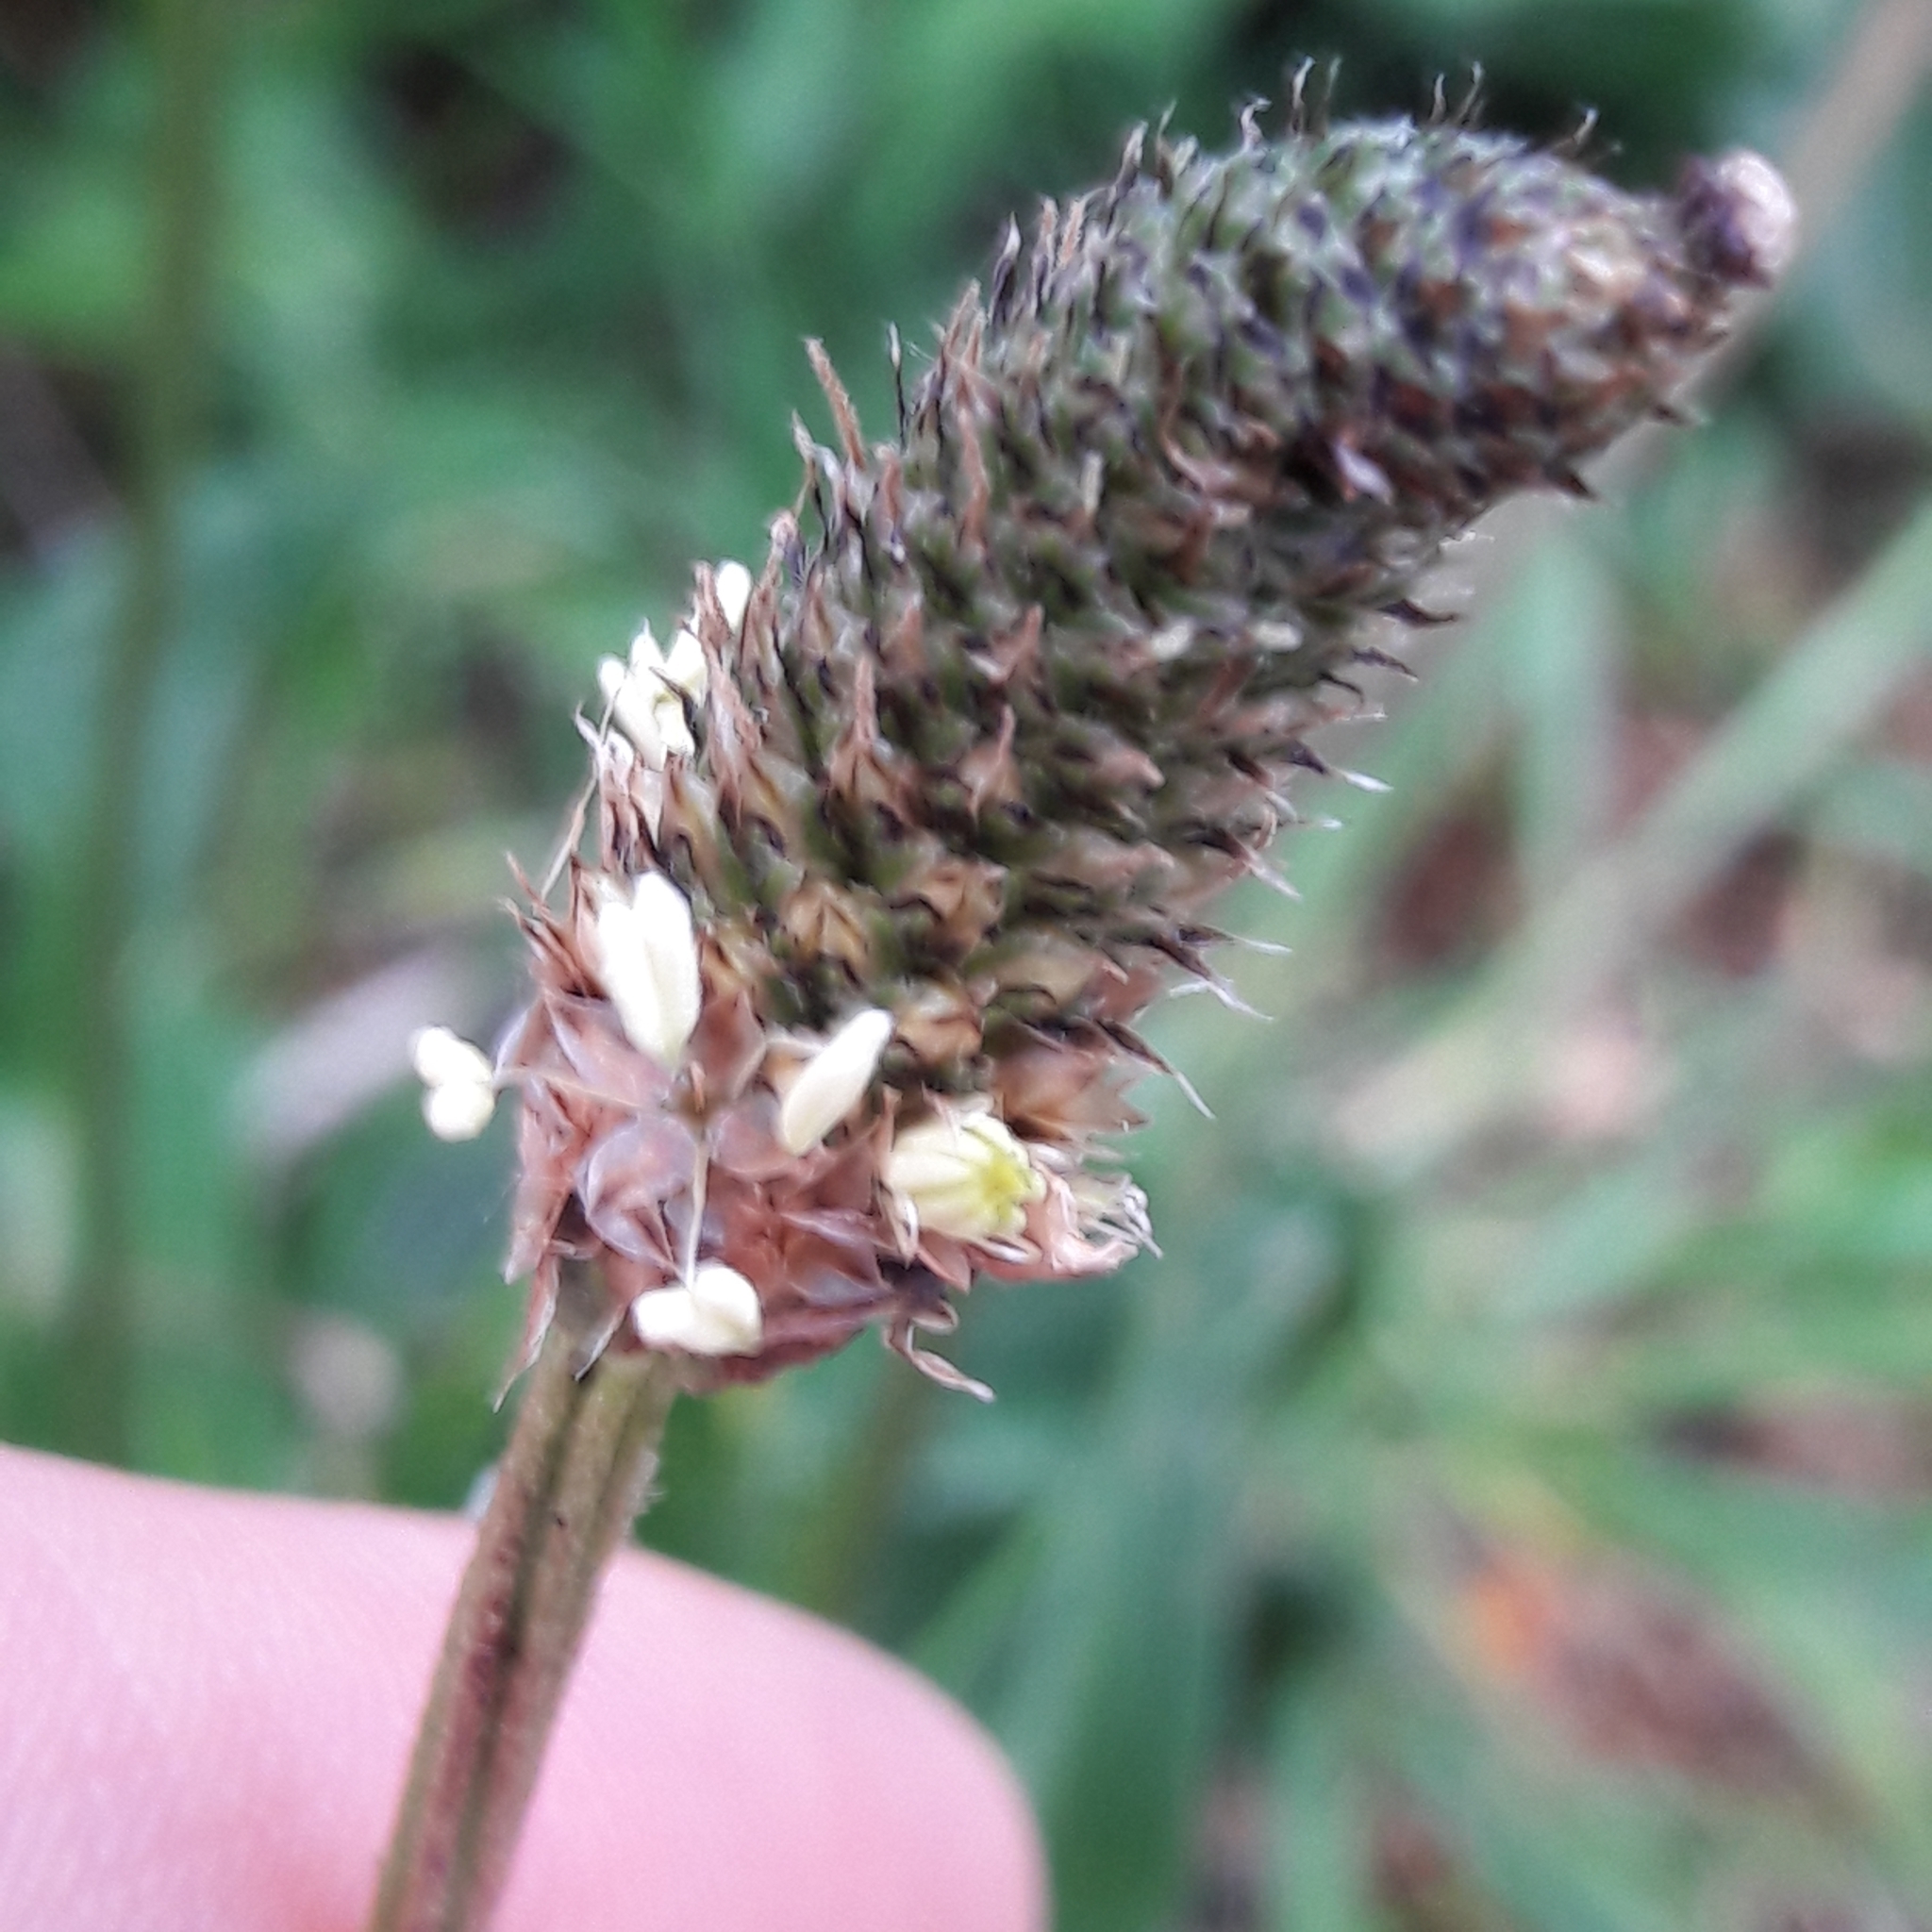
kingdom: Plantae
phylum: Tracheophyta
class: Magnoliopsida
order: Lamiales
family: Plantaginaceae
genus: Plantago
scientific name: Plantago lanceolata
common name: Ribwort plantain
